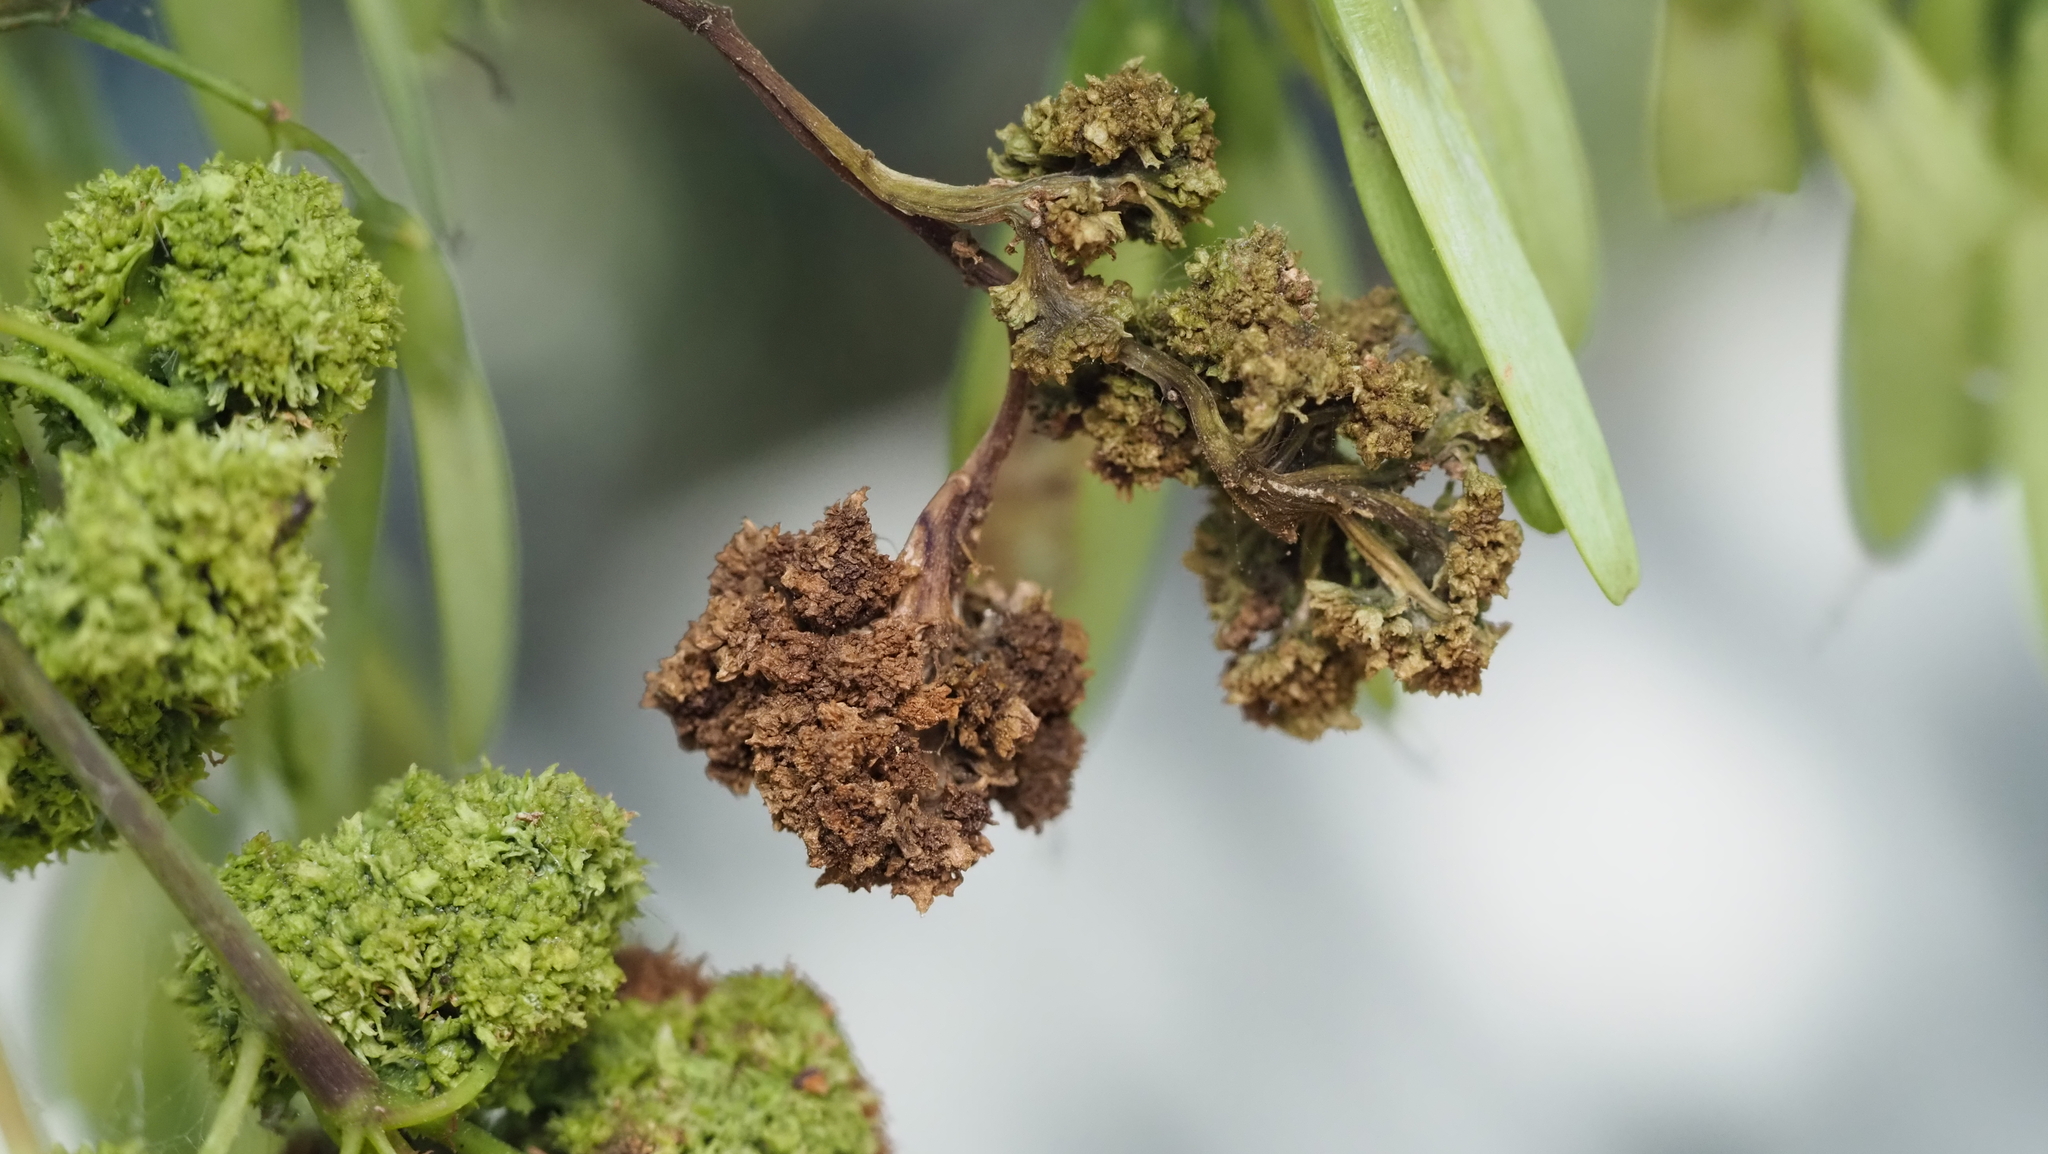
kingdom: Animalia
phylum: Arthropoda
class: Arachnida
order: Trombidiformes
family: Eriophyidae
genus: Aceria
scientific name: Aceria fraxiniflora
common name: Ash flower gall mite
